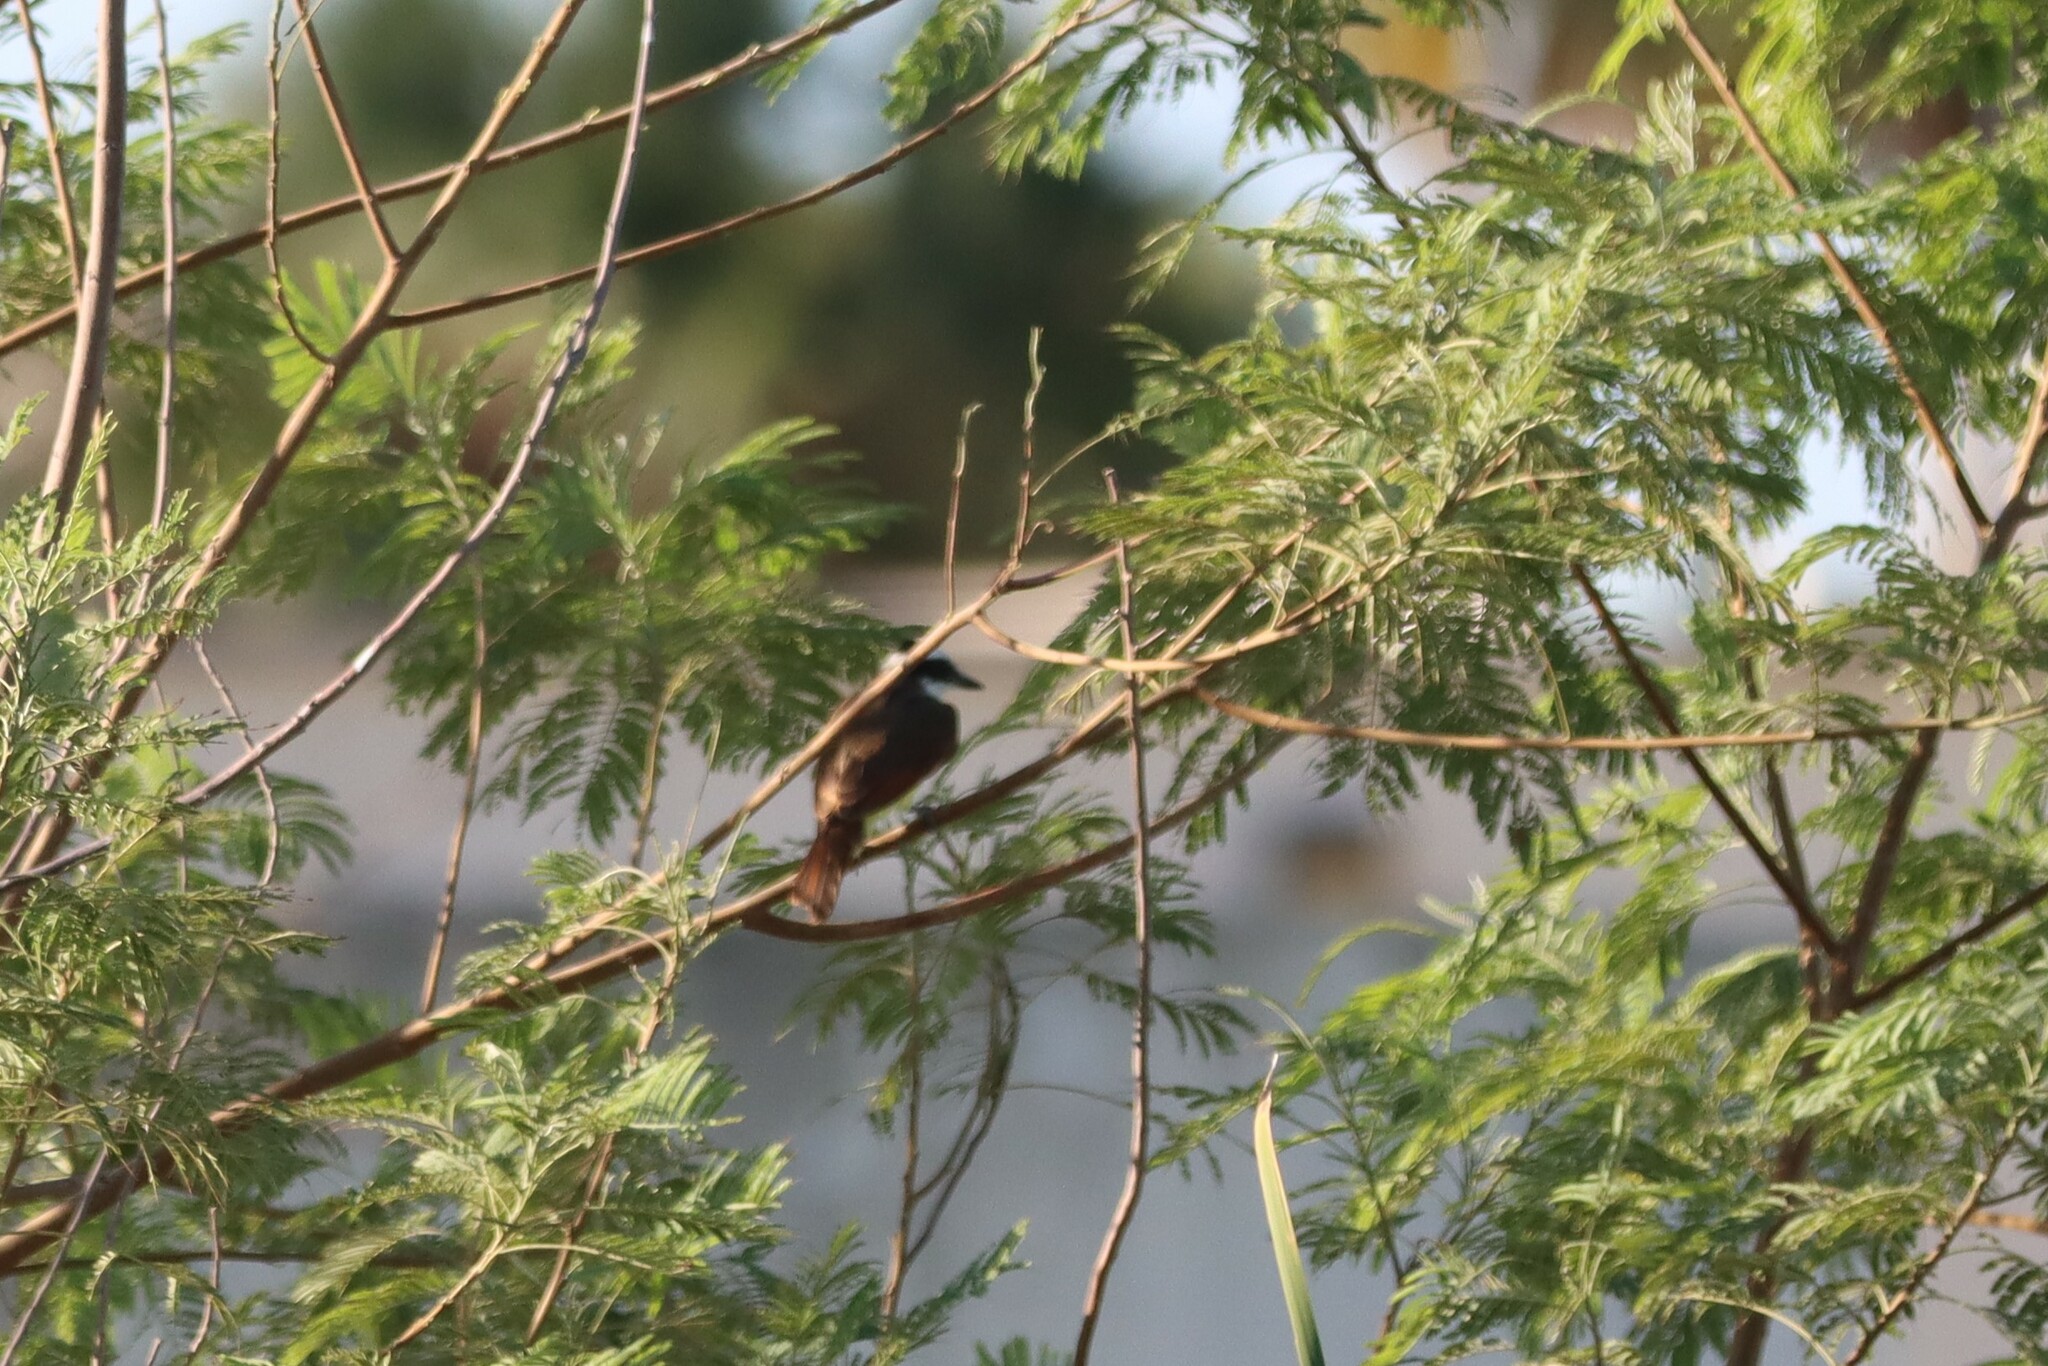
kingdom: Animalia
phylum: Chordata
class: Aves
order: Passeriformes
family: Tyrannidae
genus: Pitangus
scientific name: Pitangus sulphuratus
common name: Great kiskadee
